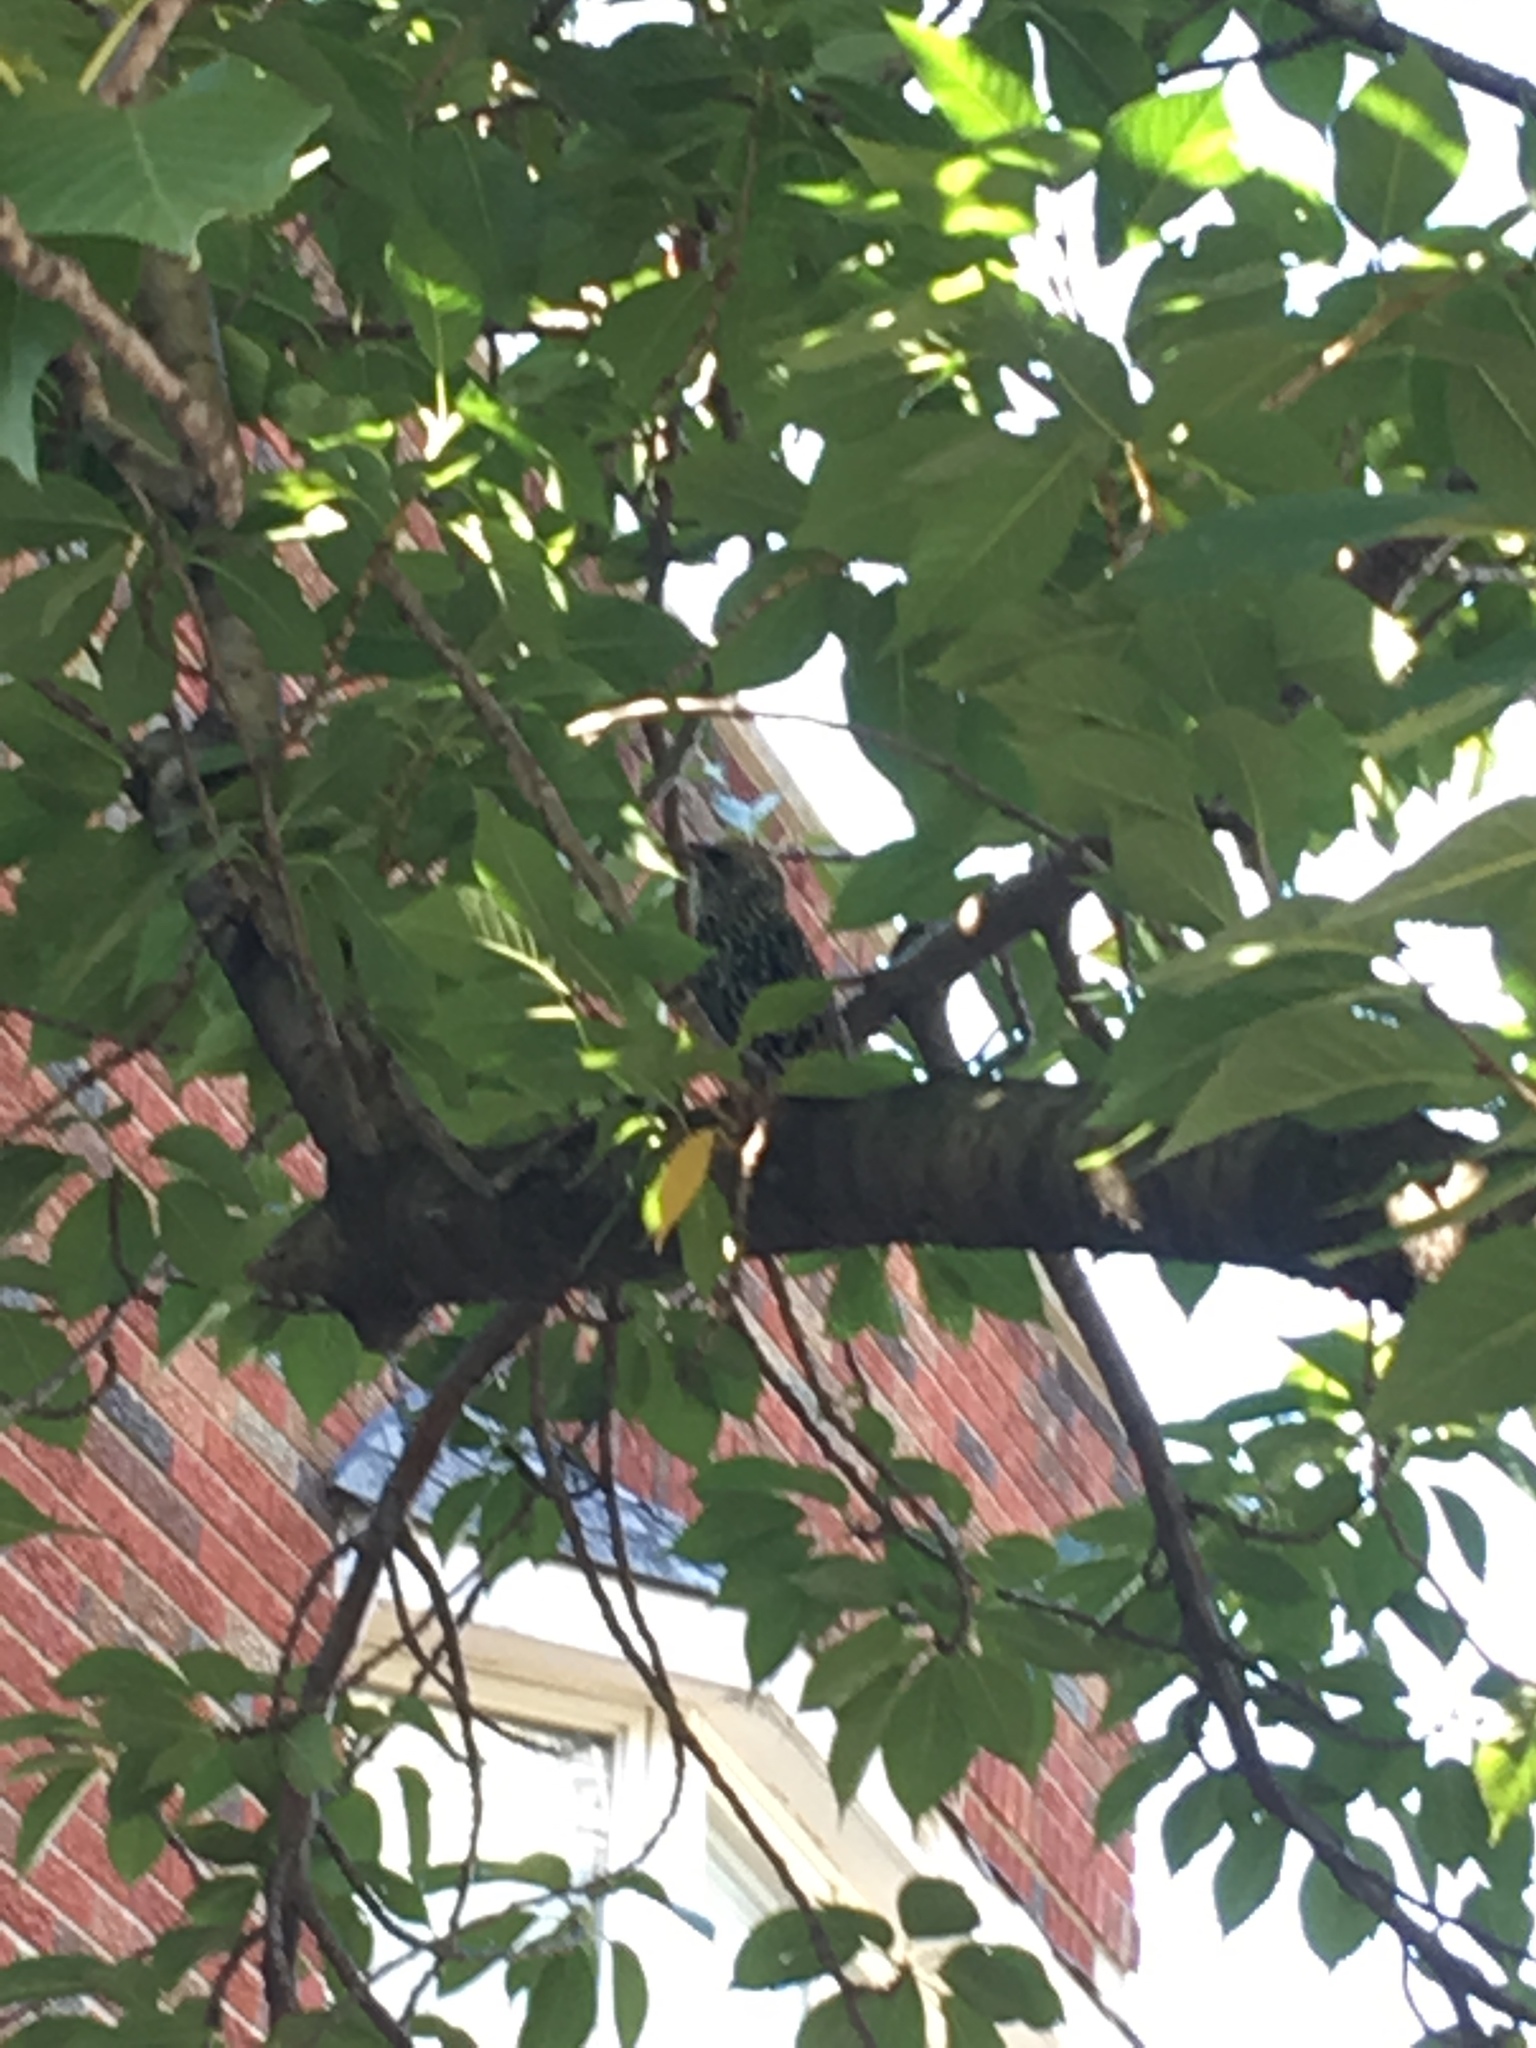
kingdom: Animalia
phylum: Chordata
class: Aves
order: Passeriformes
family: Sturnidae
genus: Sturnus
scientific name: Sturnus vulgaris
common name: Common starling
